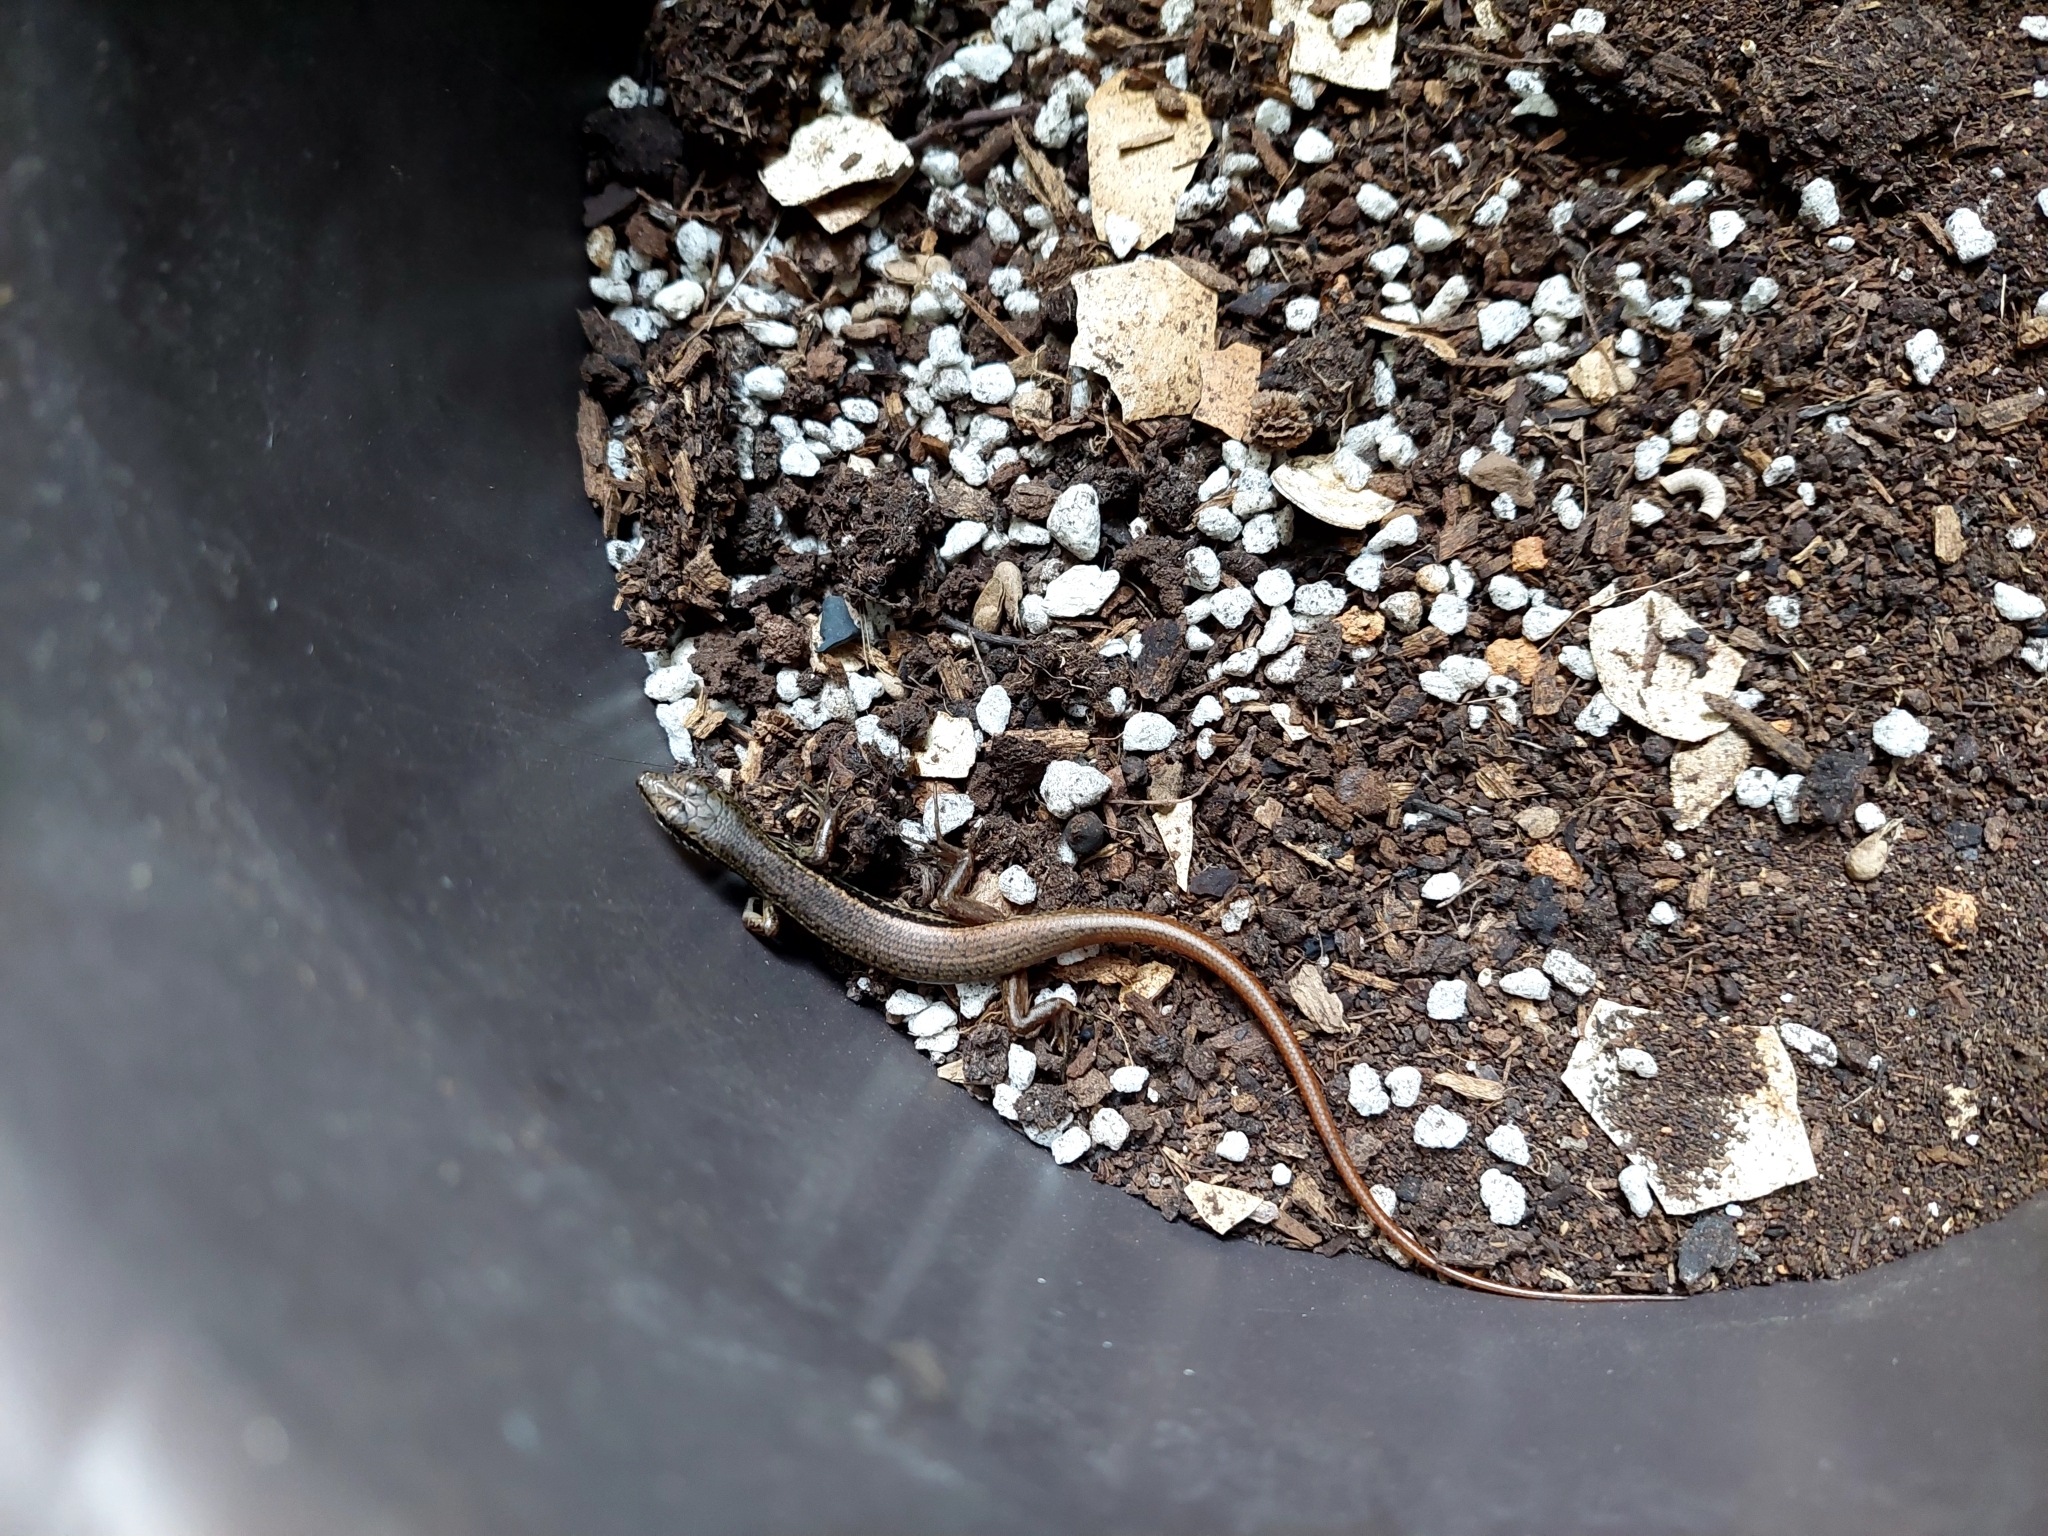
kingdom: Animalia
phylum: Chordata
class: Squamata
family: Scincidae
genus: Sphenomorphus
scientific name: Sphenomorphus indicus
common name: Himalayan forest skink
